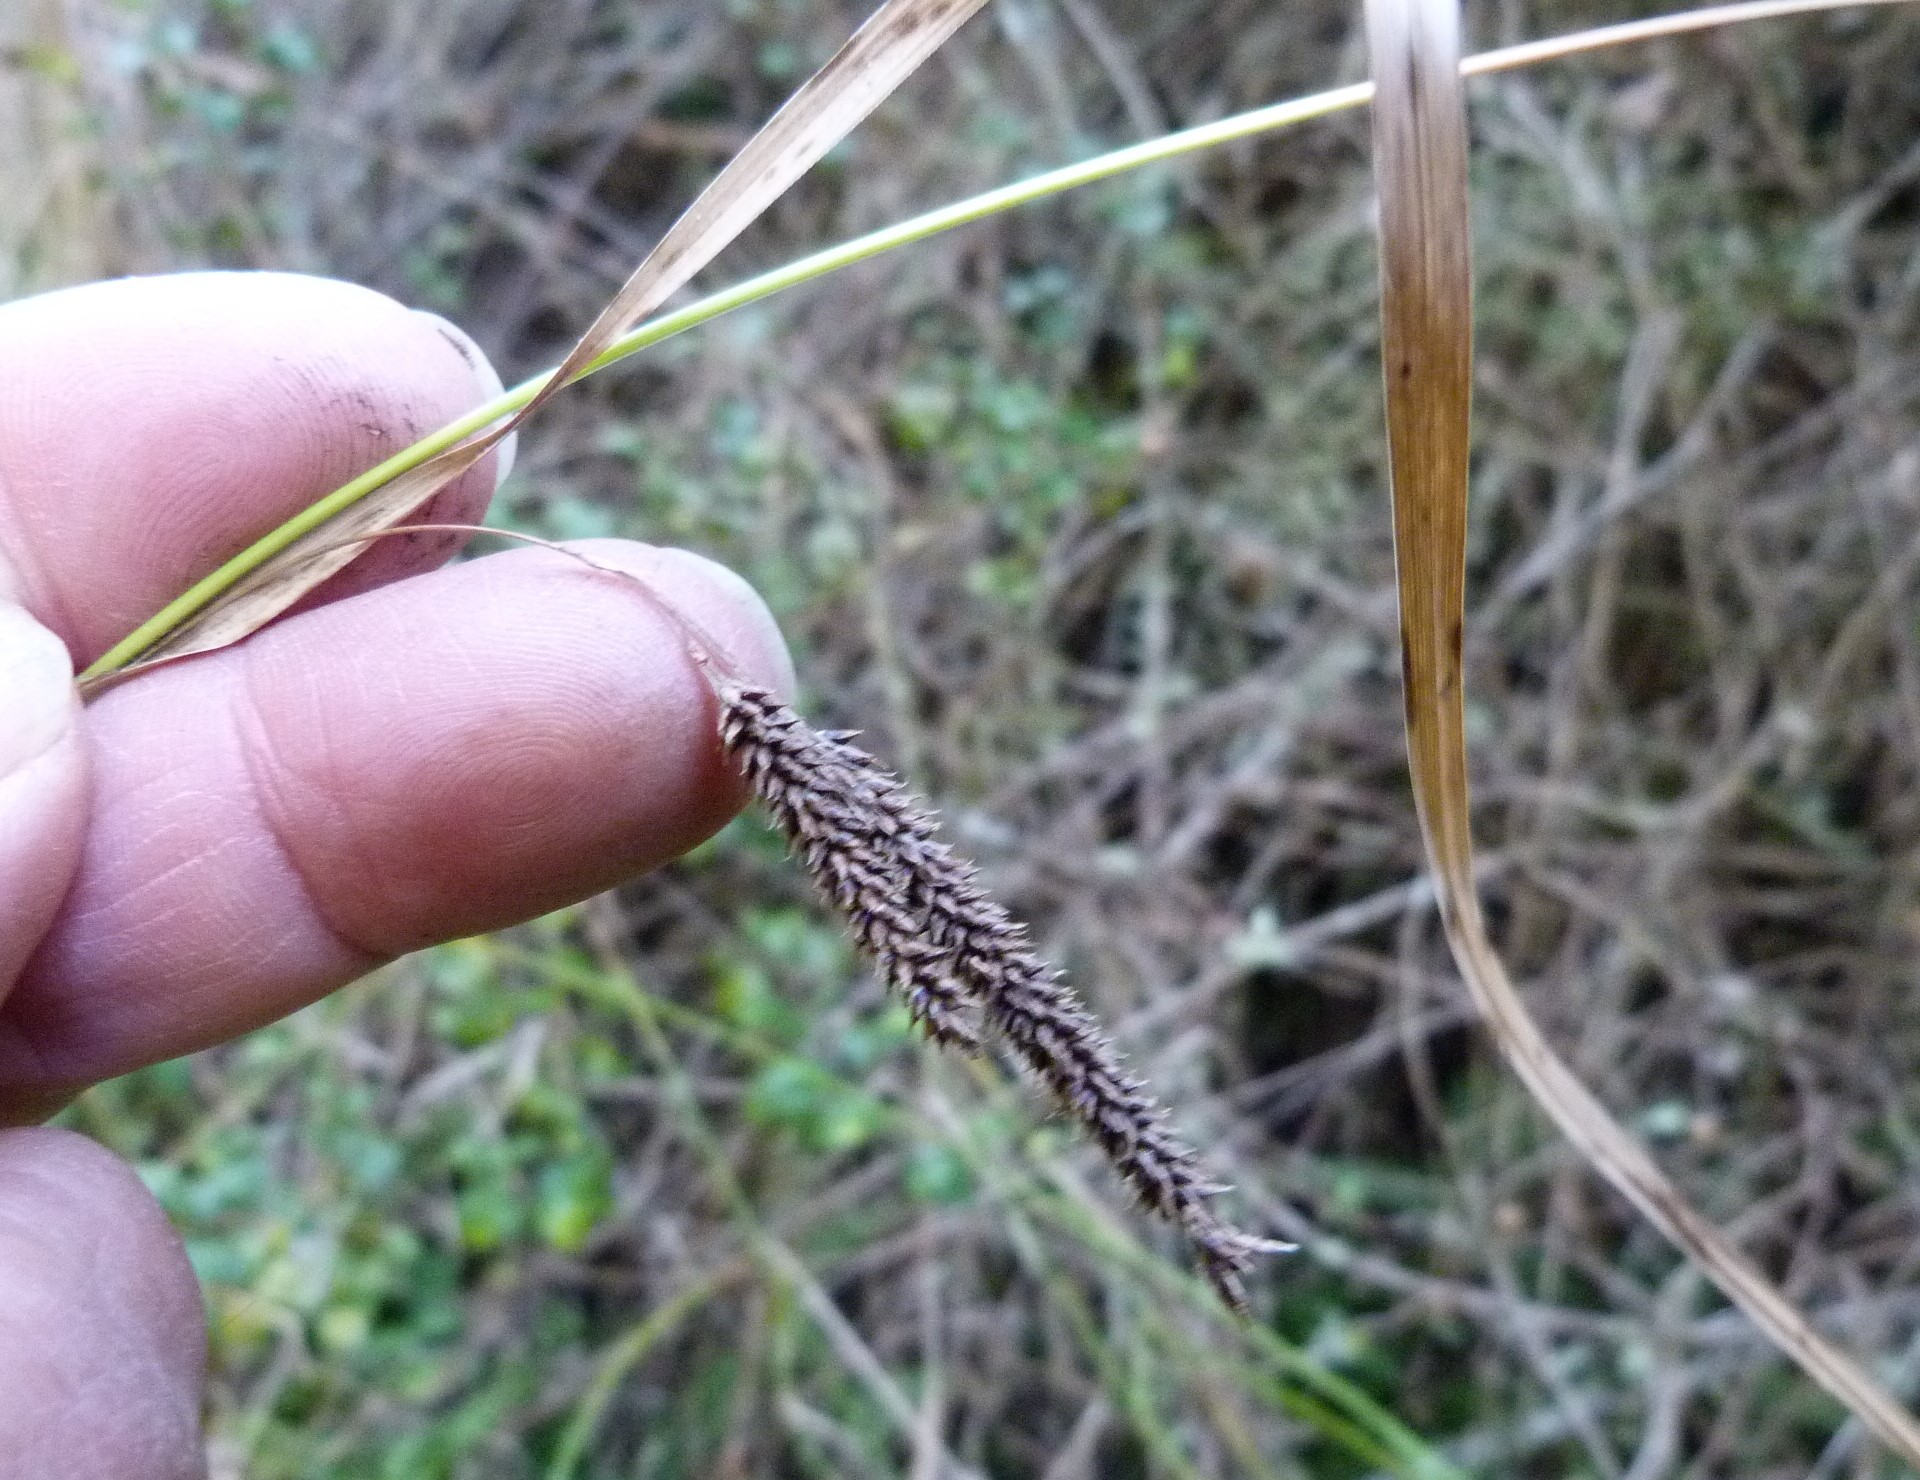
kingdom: Plantae
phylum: Tracheophyta
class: Liliopsida
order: Poales
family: Cyperaceae
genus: Carex
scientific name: Carex solandri
